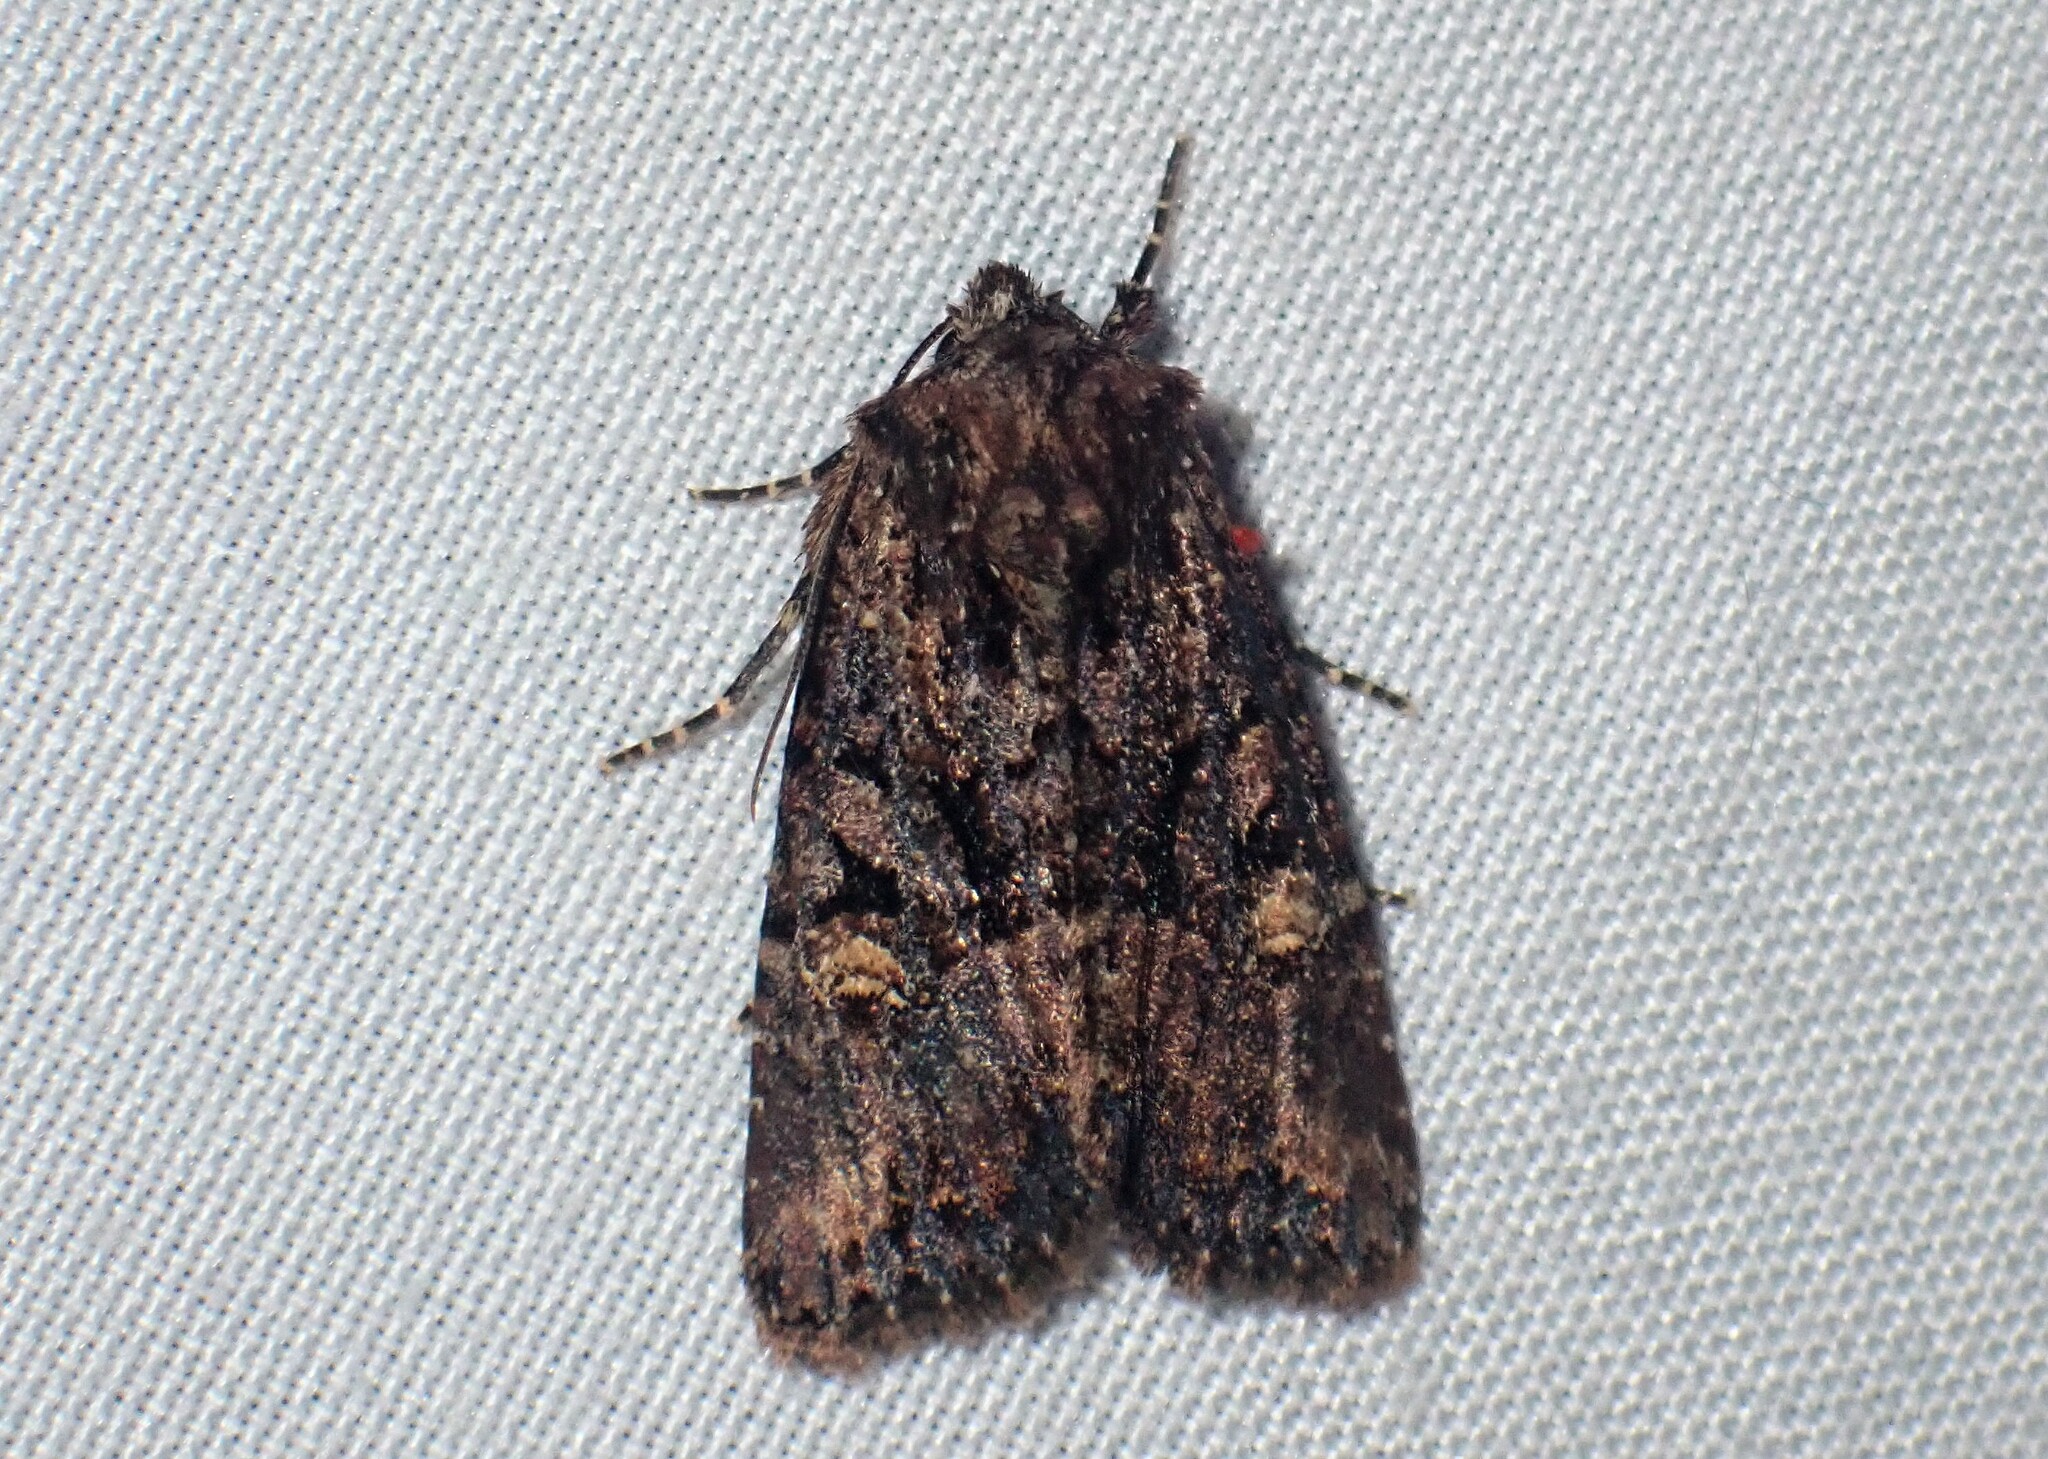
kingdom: Animalia
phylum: Arthropoda
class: Insecta
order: Lepidoptera
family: Noctuidae
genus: Mesapamea
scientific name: Mesapamea storai
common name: Owlet moth
